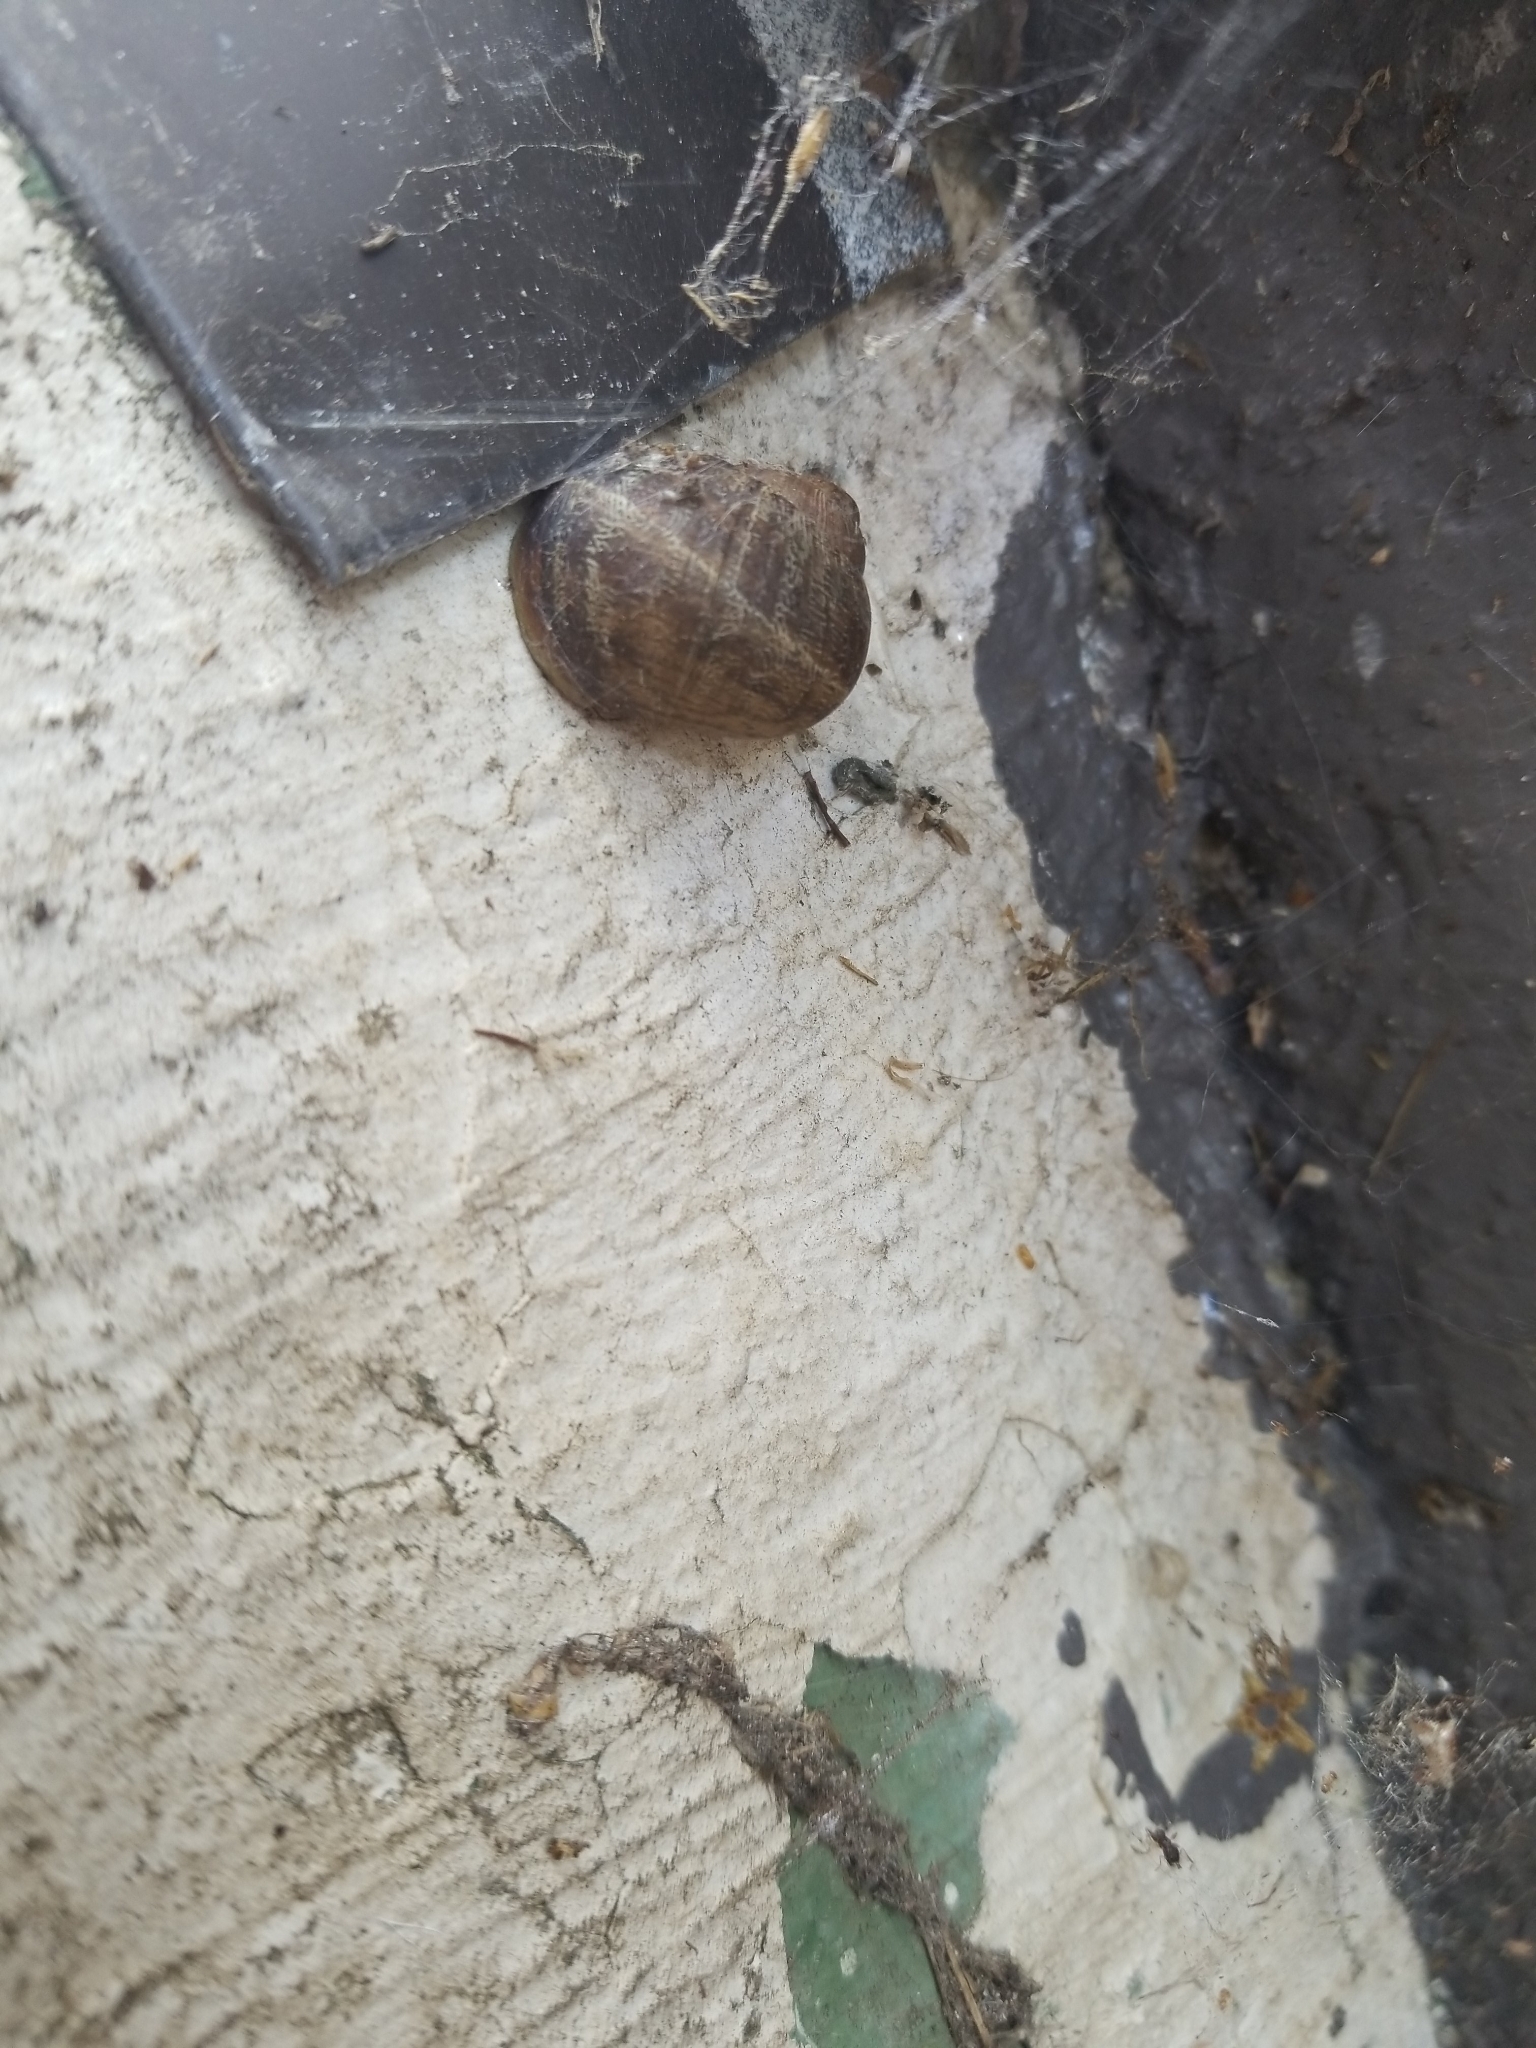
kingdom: Animalia
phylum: Mollusca
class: Gastropoda
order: Stylommatophora
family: Helicidae
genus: Cornu
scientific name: Cornu aspersum
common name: Brown garden snail
